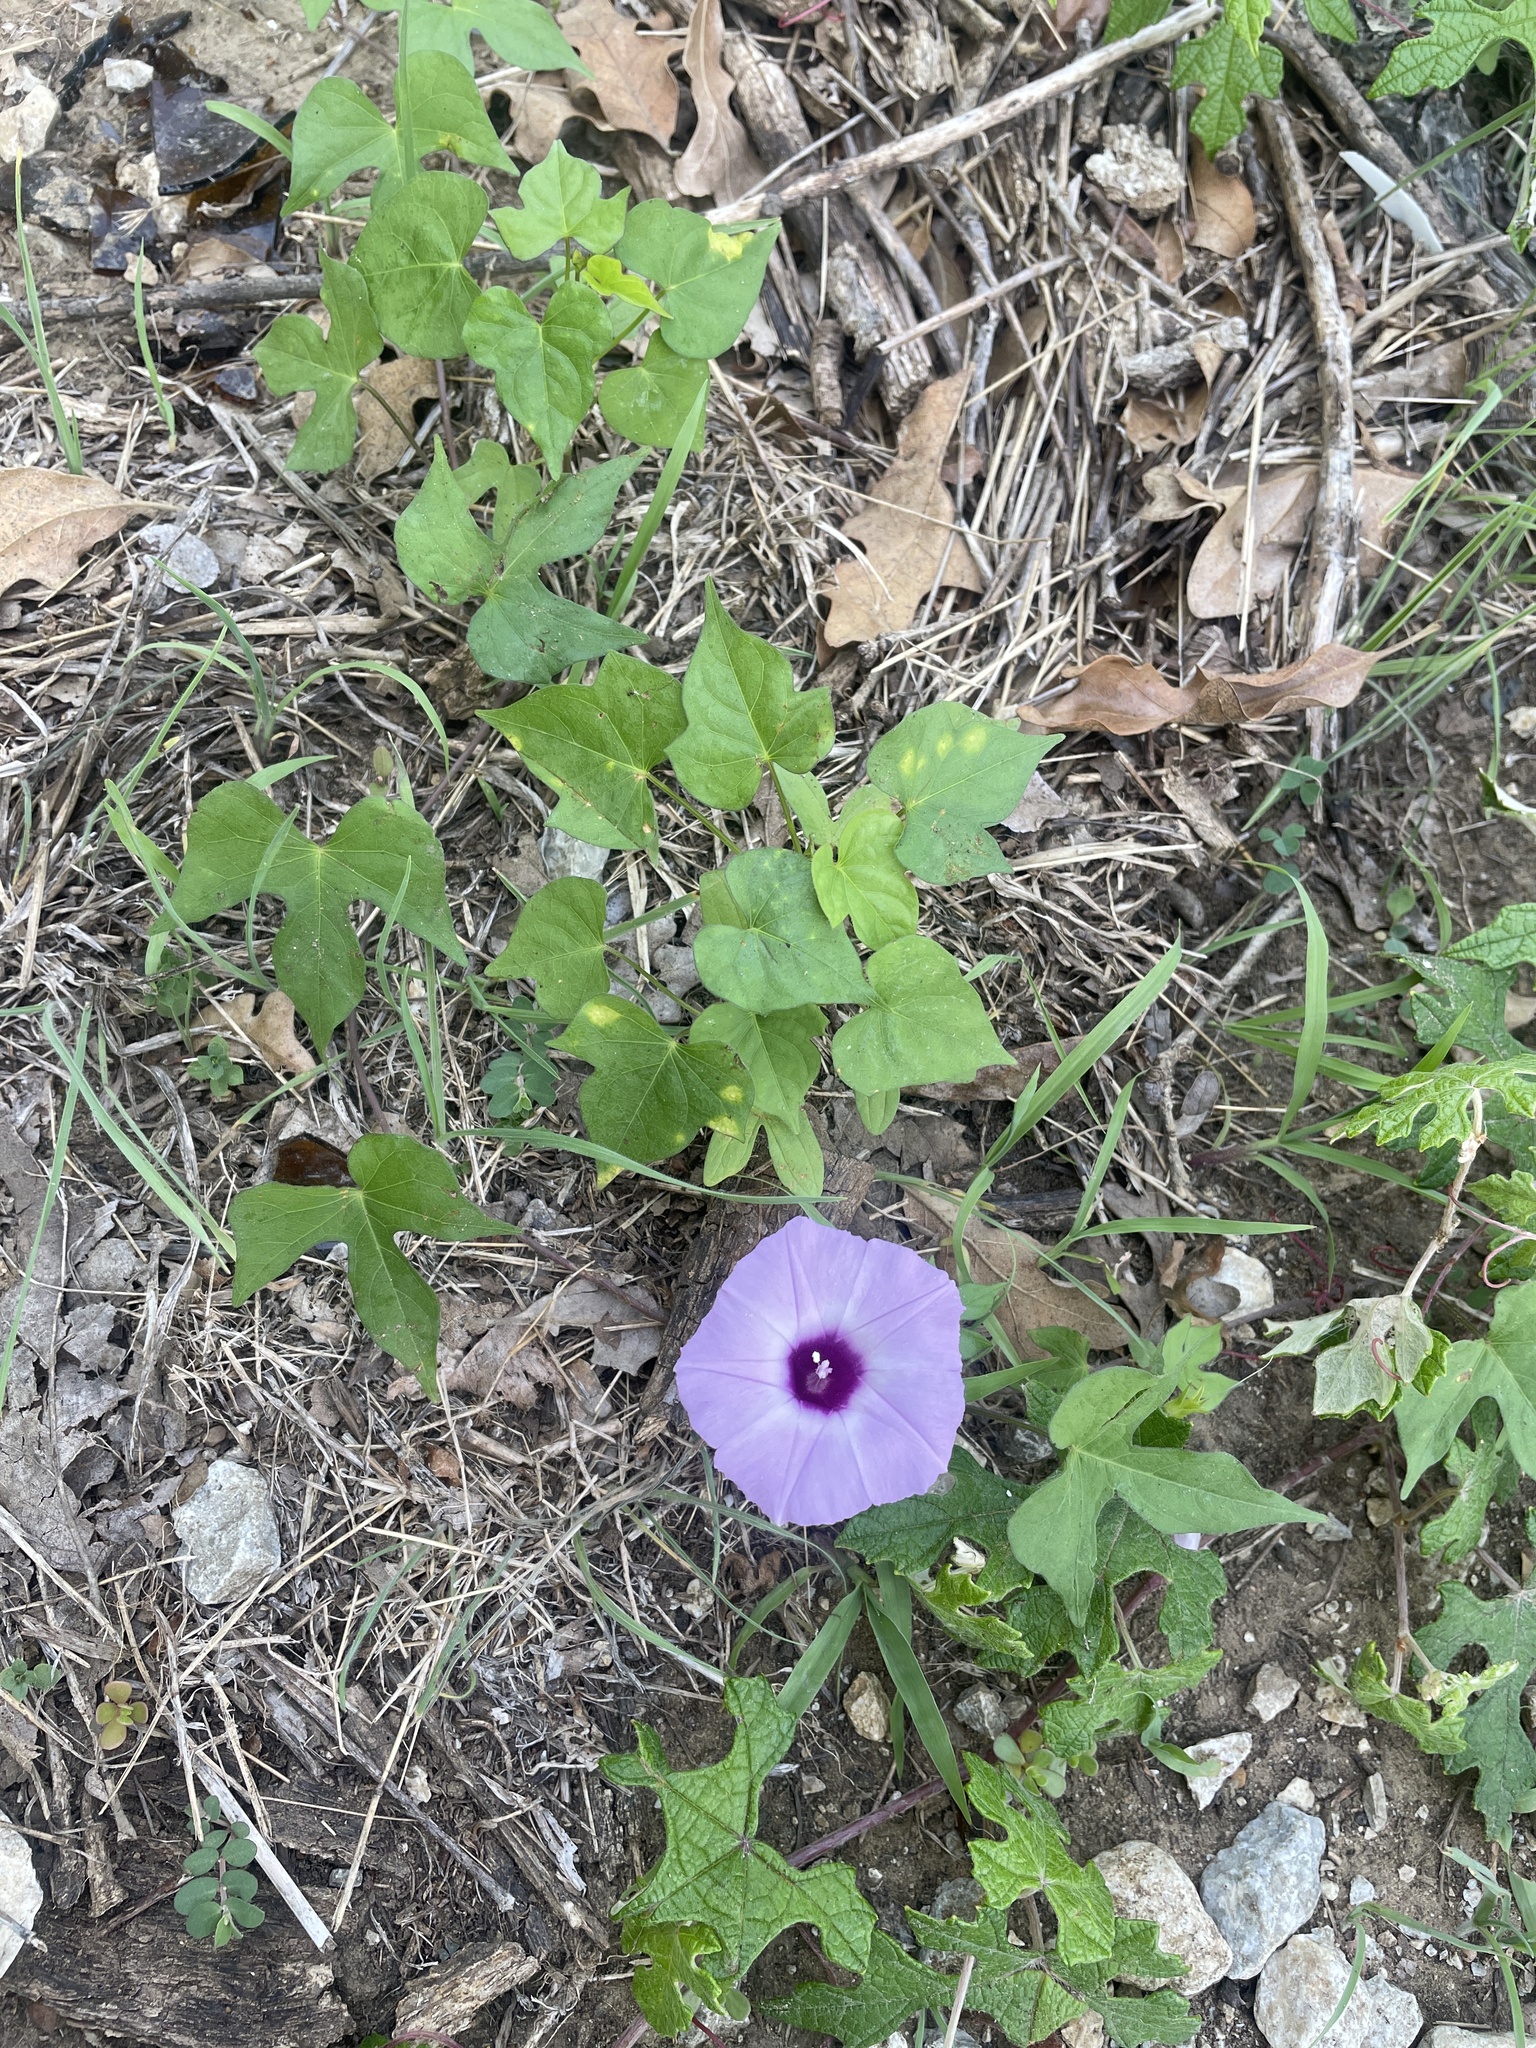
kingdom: Plantae
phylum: Tracheophyta
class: Magnoliopsida
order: Solanales
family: Convolvulaceae
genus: Ipomoea
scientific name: Ipomoea cordatotriloba
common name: Cotton morning glory
